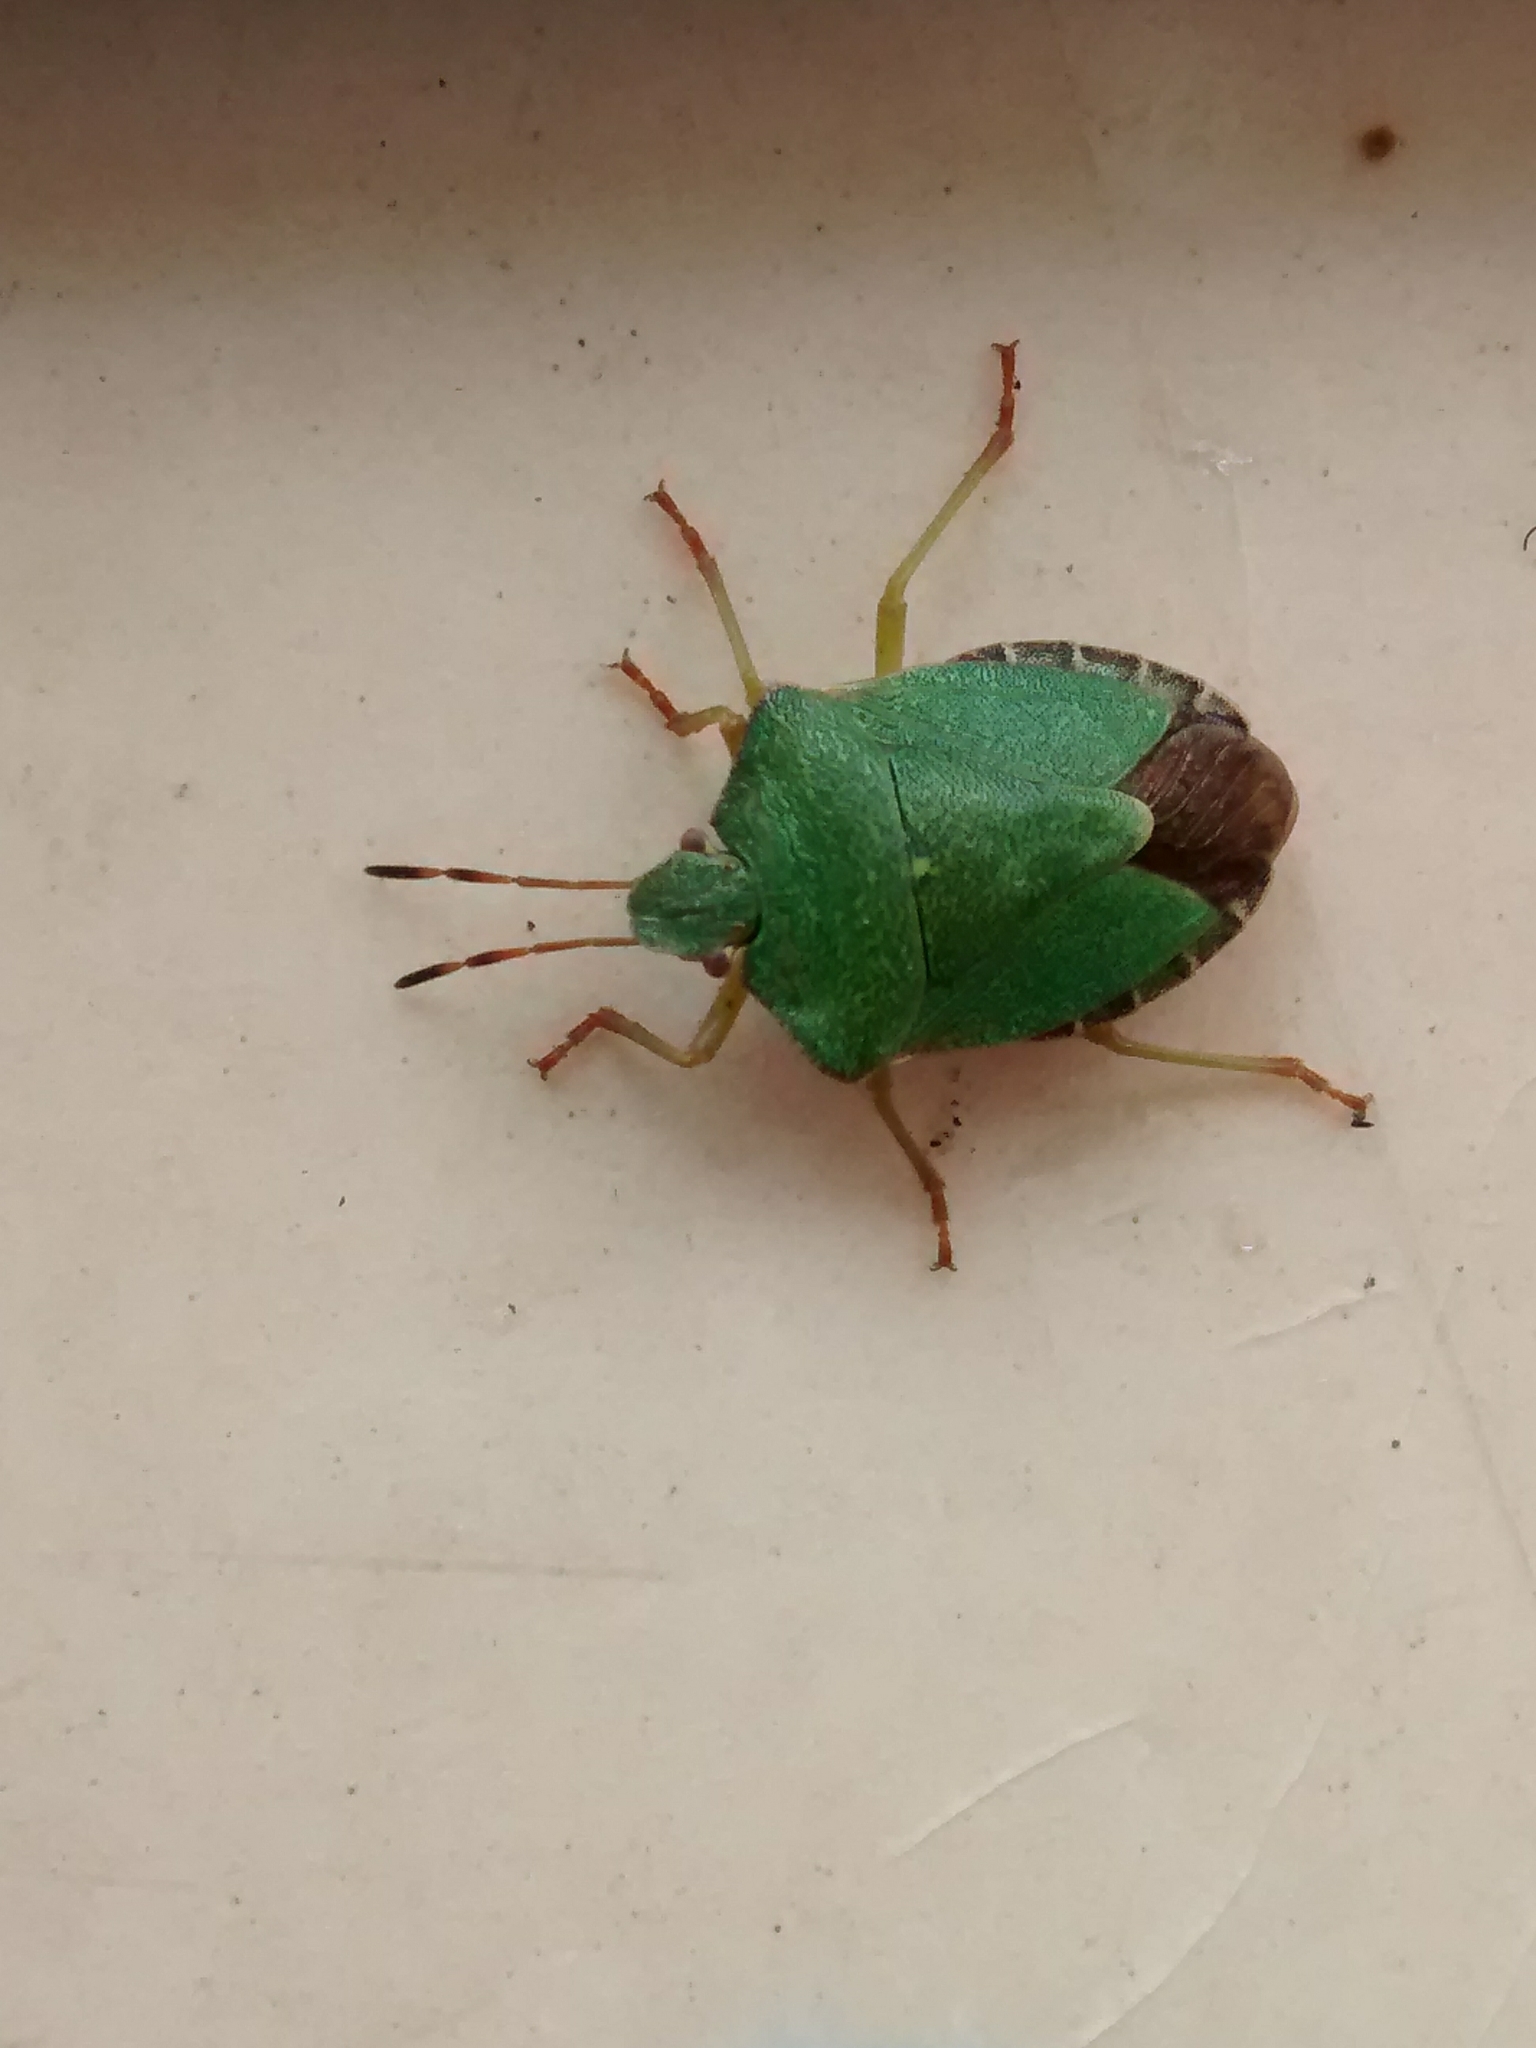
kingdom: Animalia
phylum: Arthropoda
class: Insecta
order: Hemiptera
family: Pentatomidae
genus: Palomena
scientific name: Palomena prasina
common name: Green shieldbug
